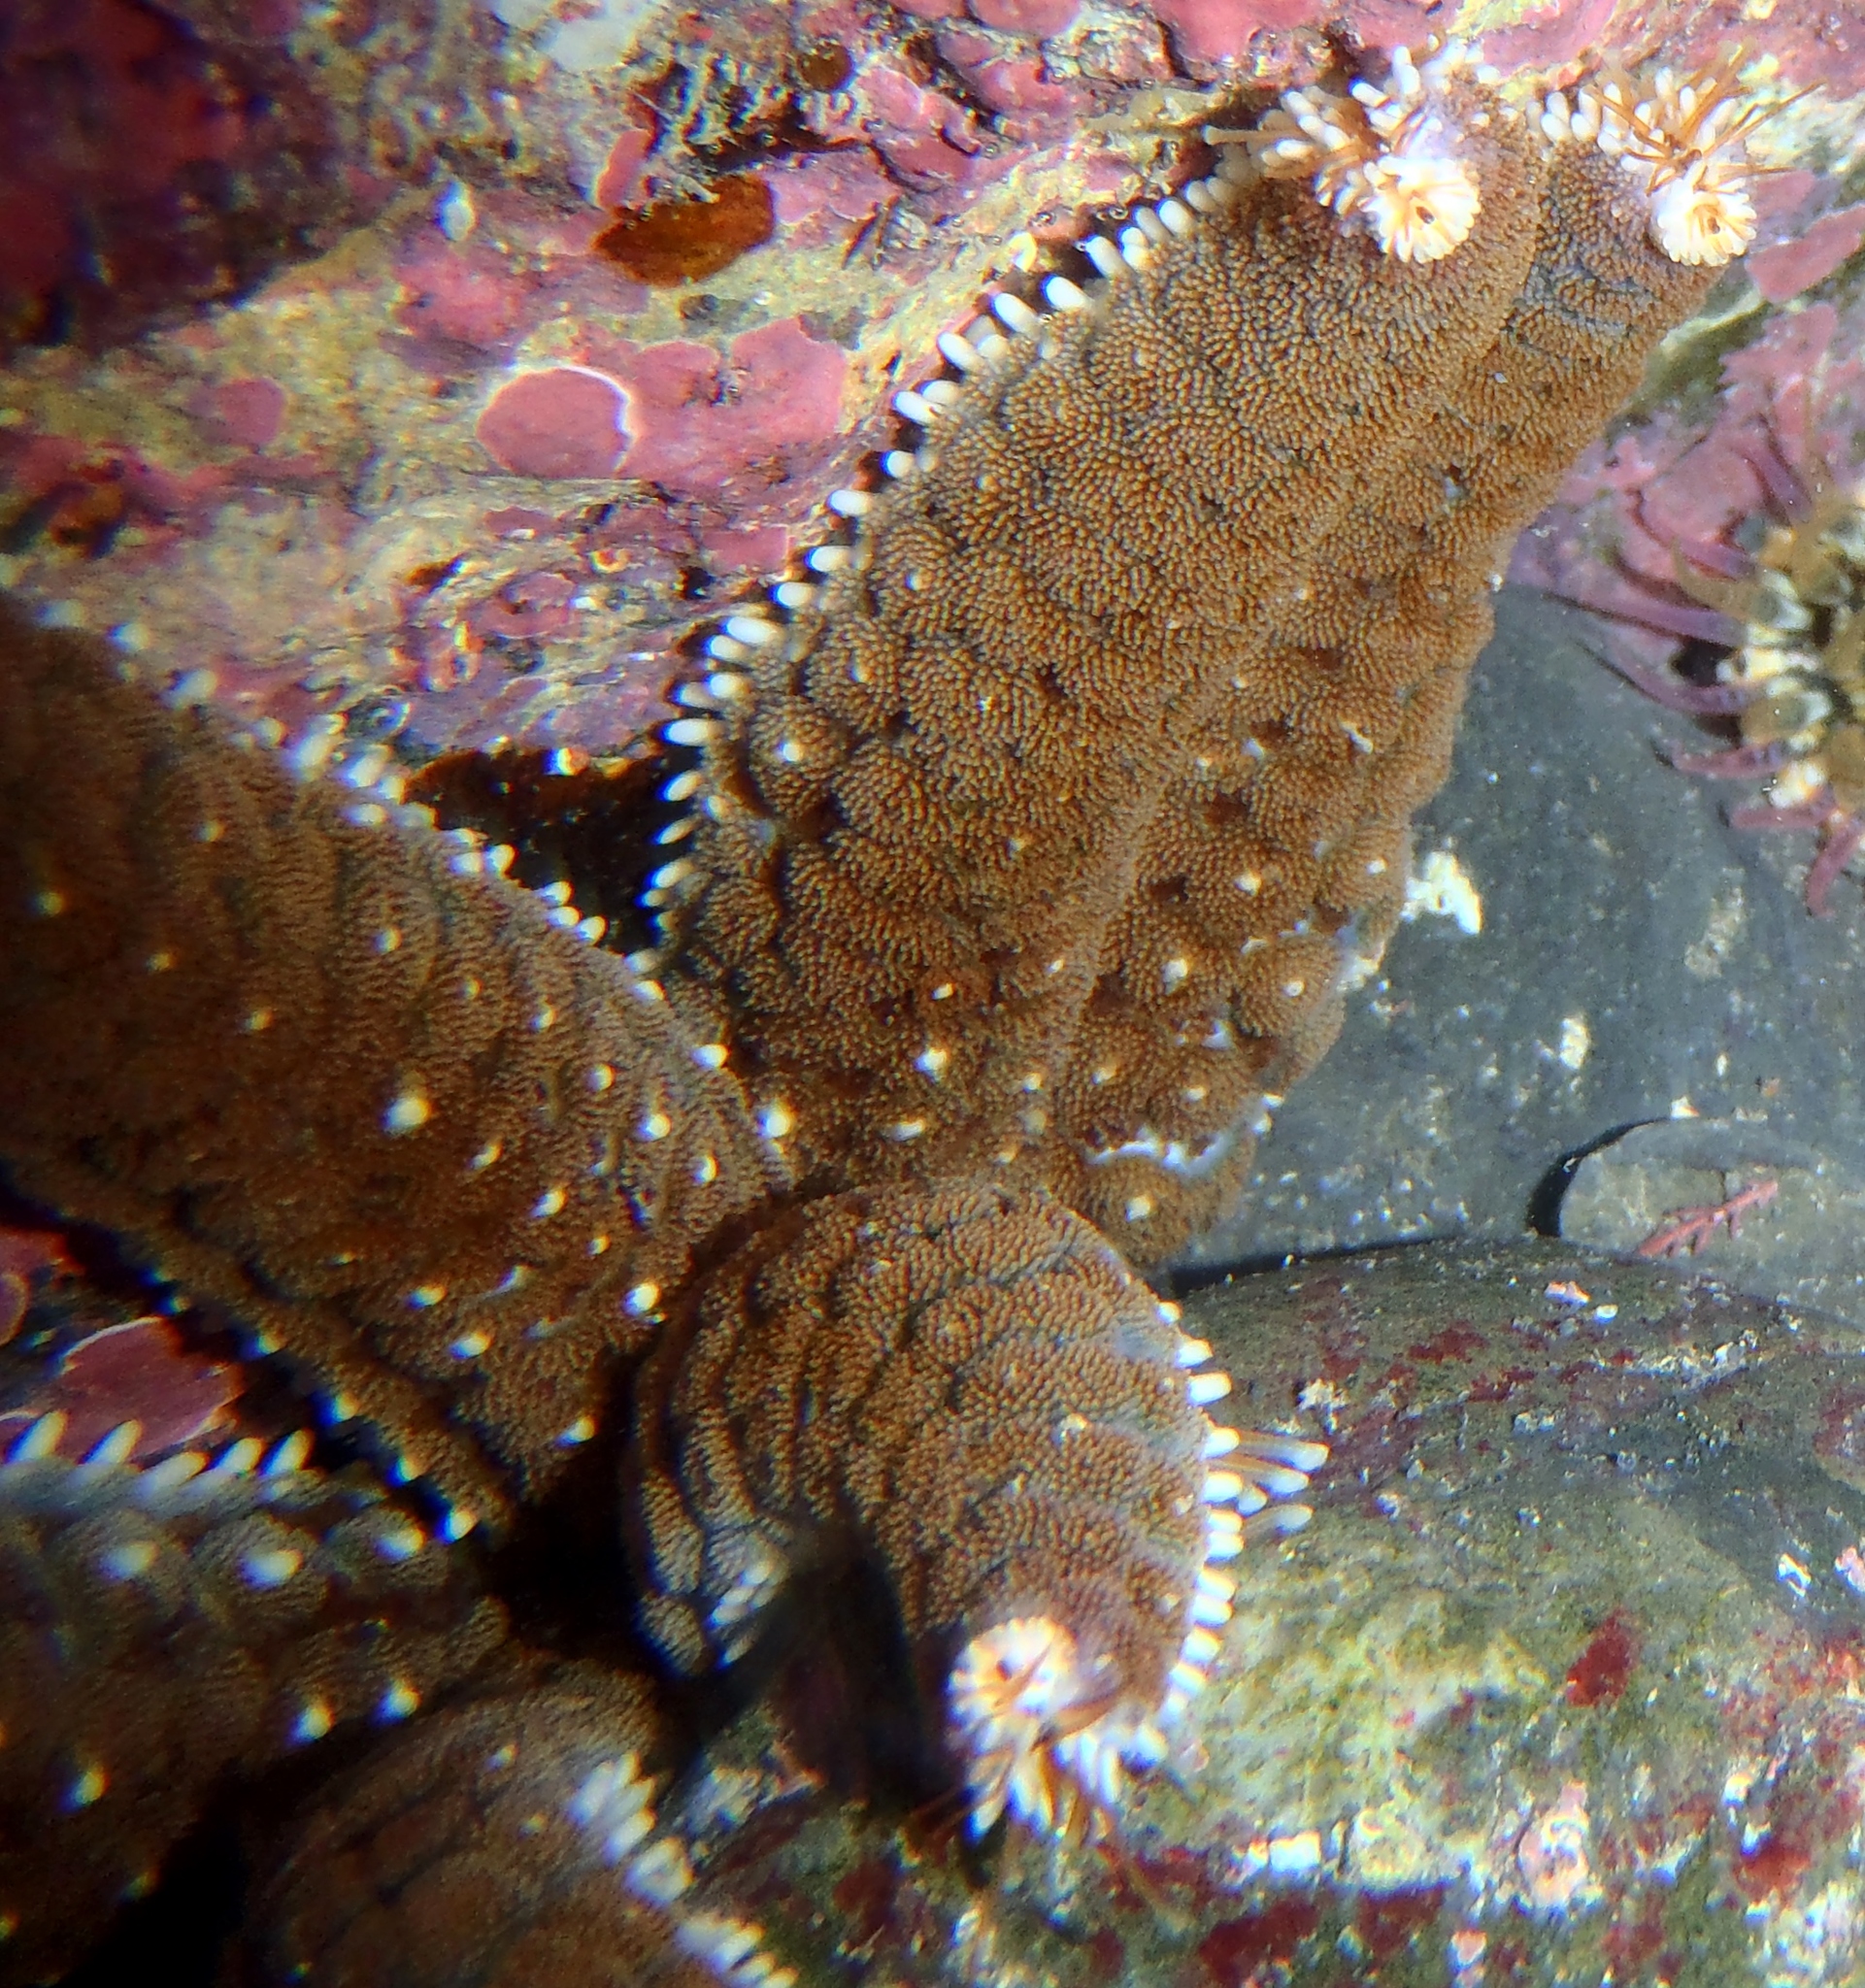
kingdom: Animalia
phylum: Echinodermata
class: Asteroidea
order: Forcipulatida
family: Asteriidae
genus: Astrostole
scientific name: Astrostole scabra
